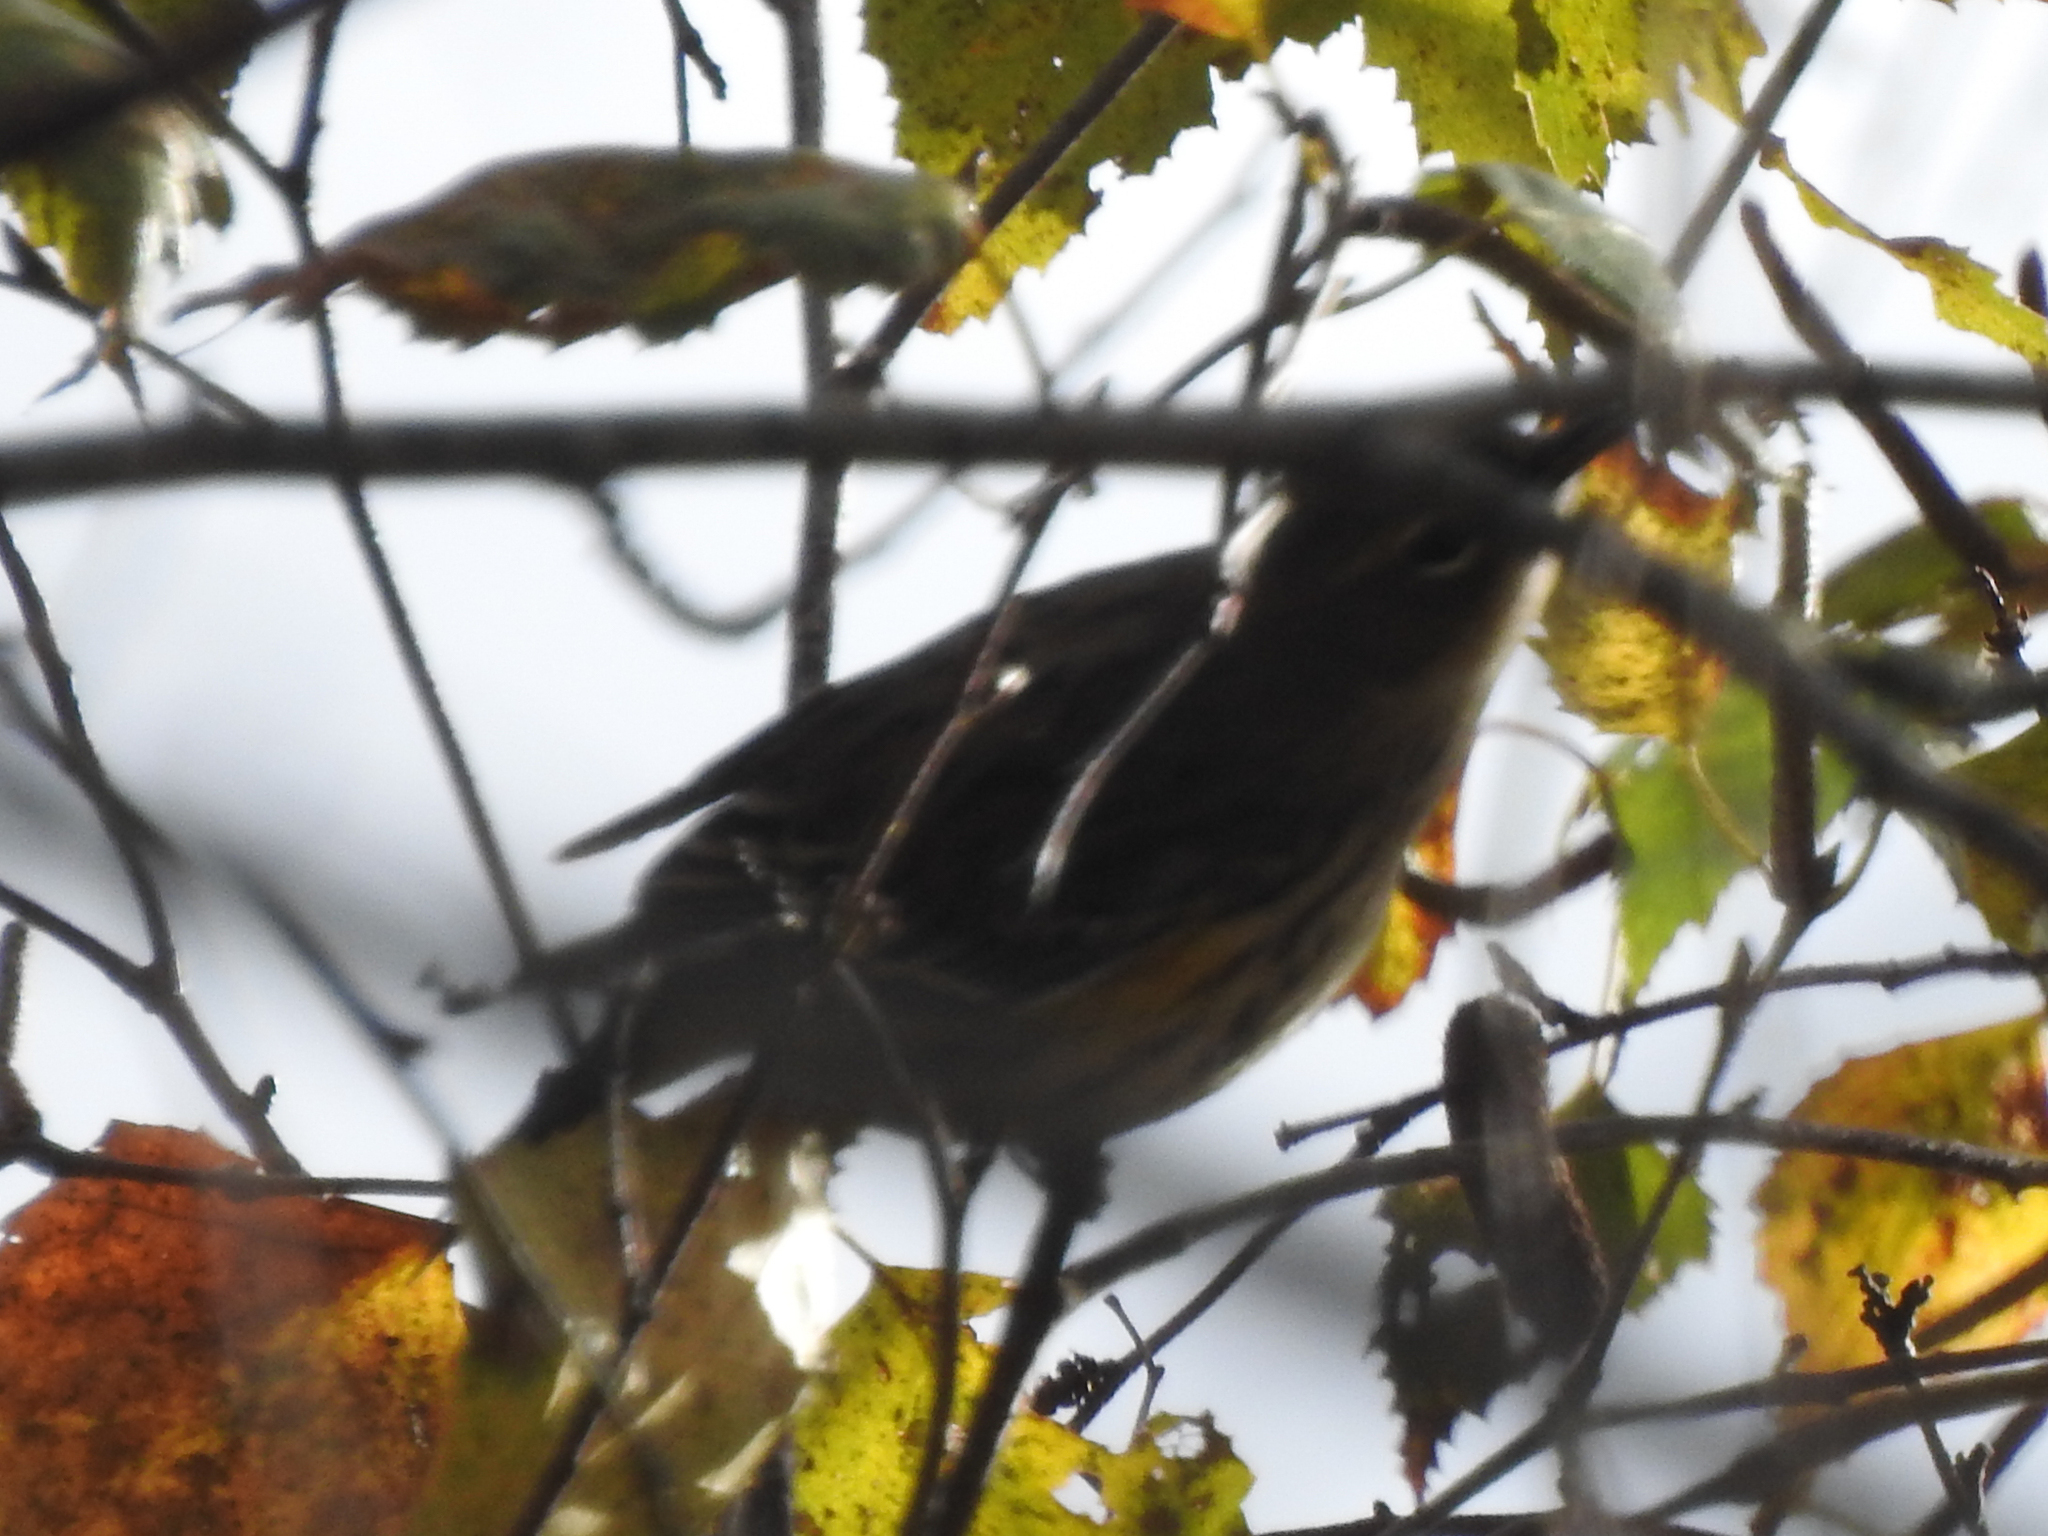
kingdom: Animalia
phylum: Chordata
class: Aves
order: Passeriformes
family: Parulidae
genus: Setophaga
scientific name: Setophaga coronata
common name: Myrtle warbler
